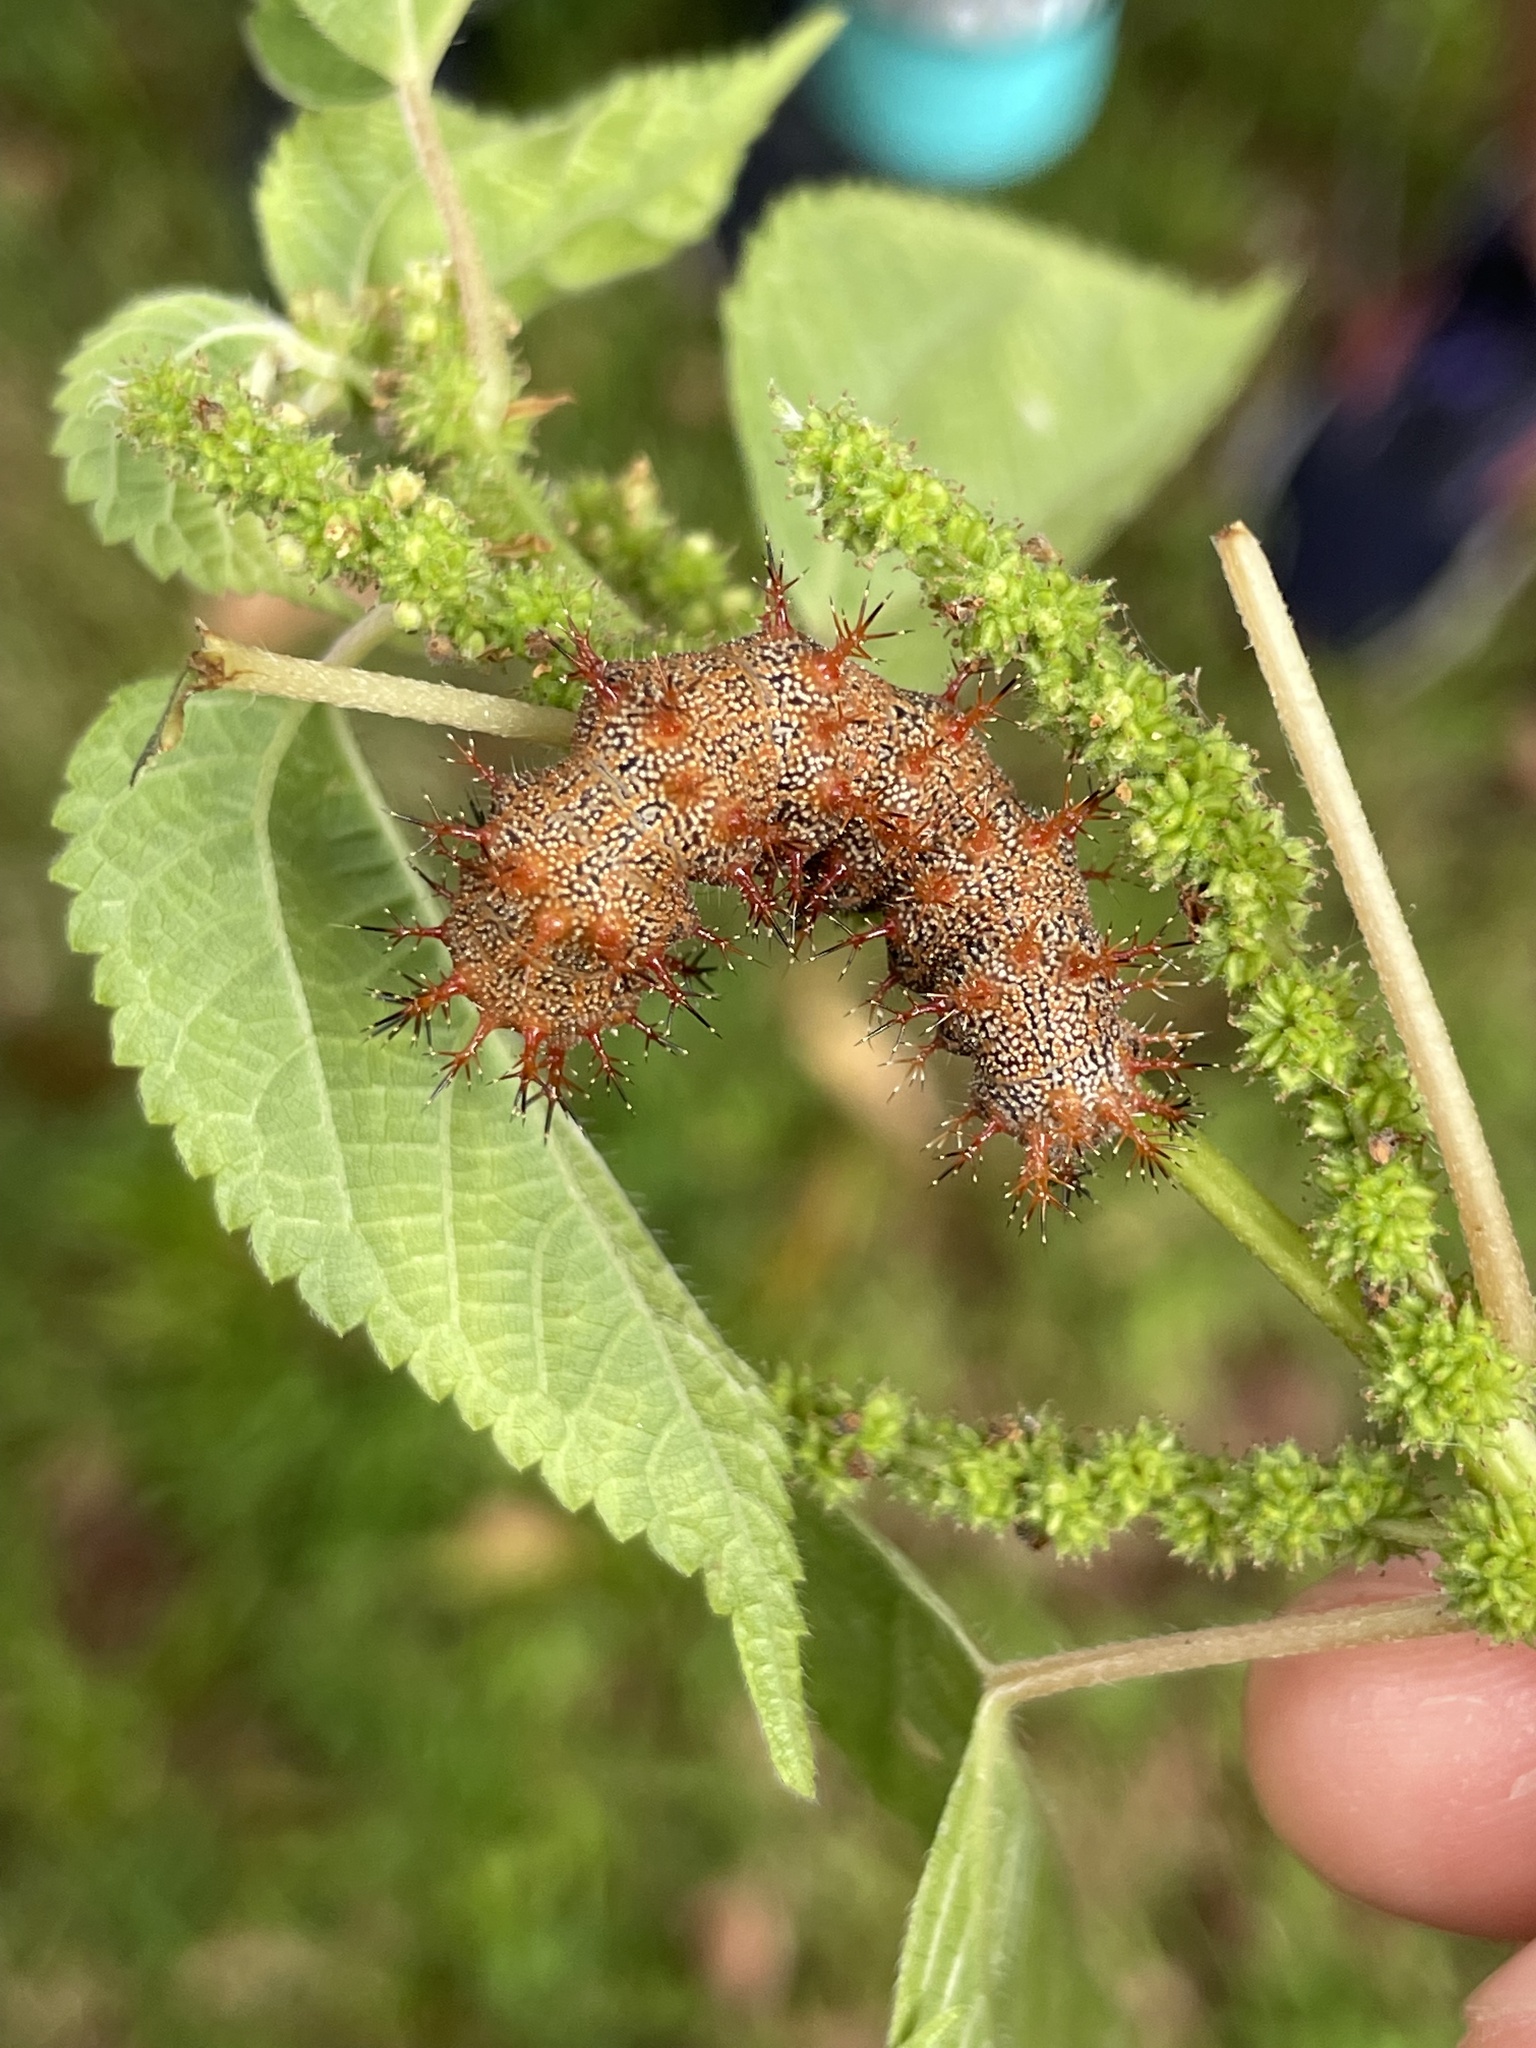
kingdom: Animalia
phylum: Arthropoda
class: Insecta
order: Lepidoptera
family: Nymphalidae
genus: Polygonia
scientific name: Polygonia interrogationis
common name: Question mark
